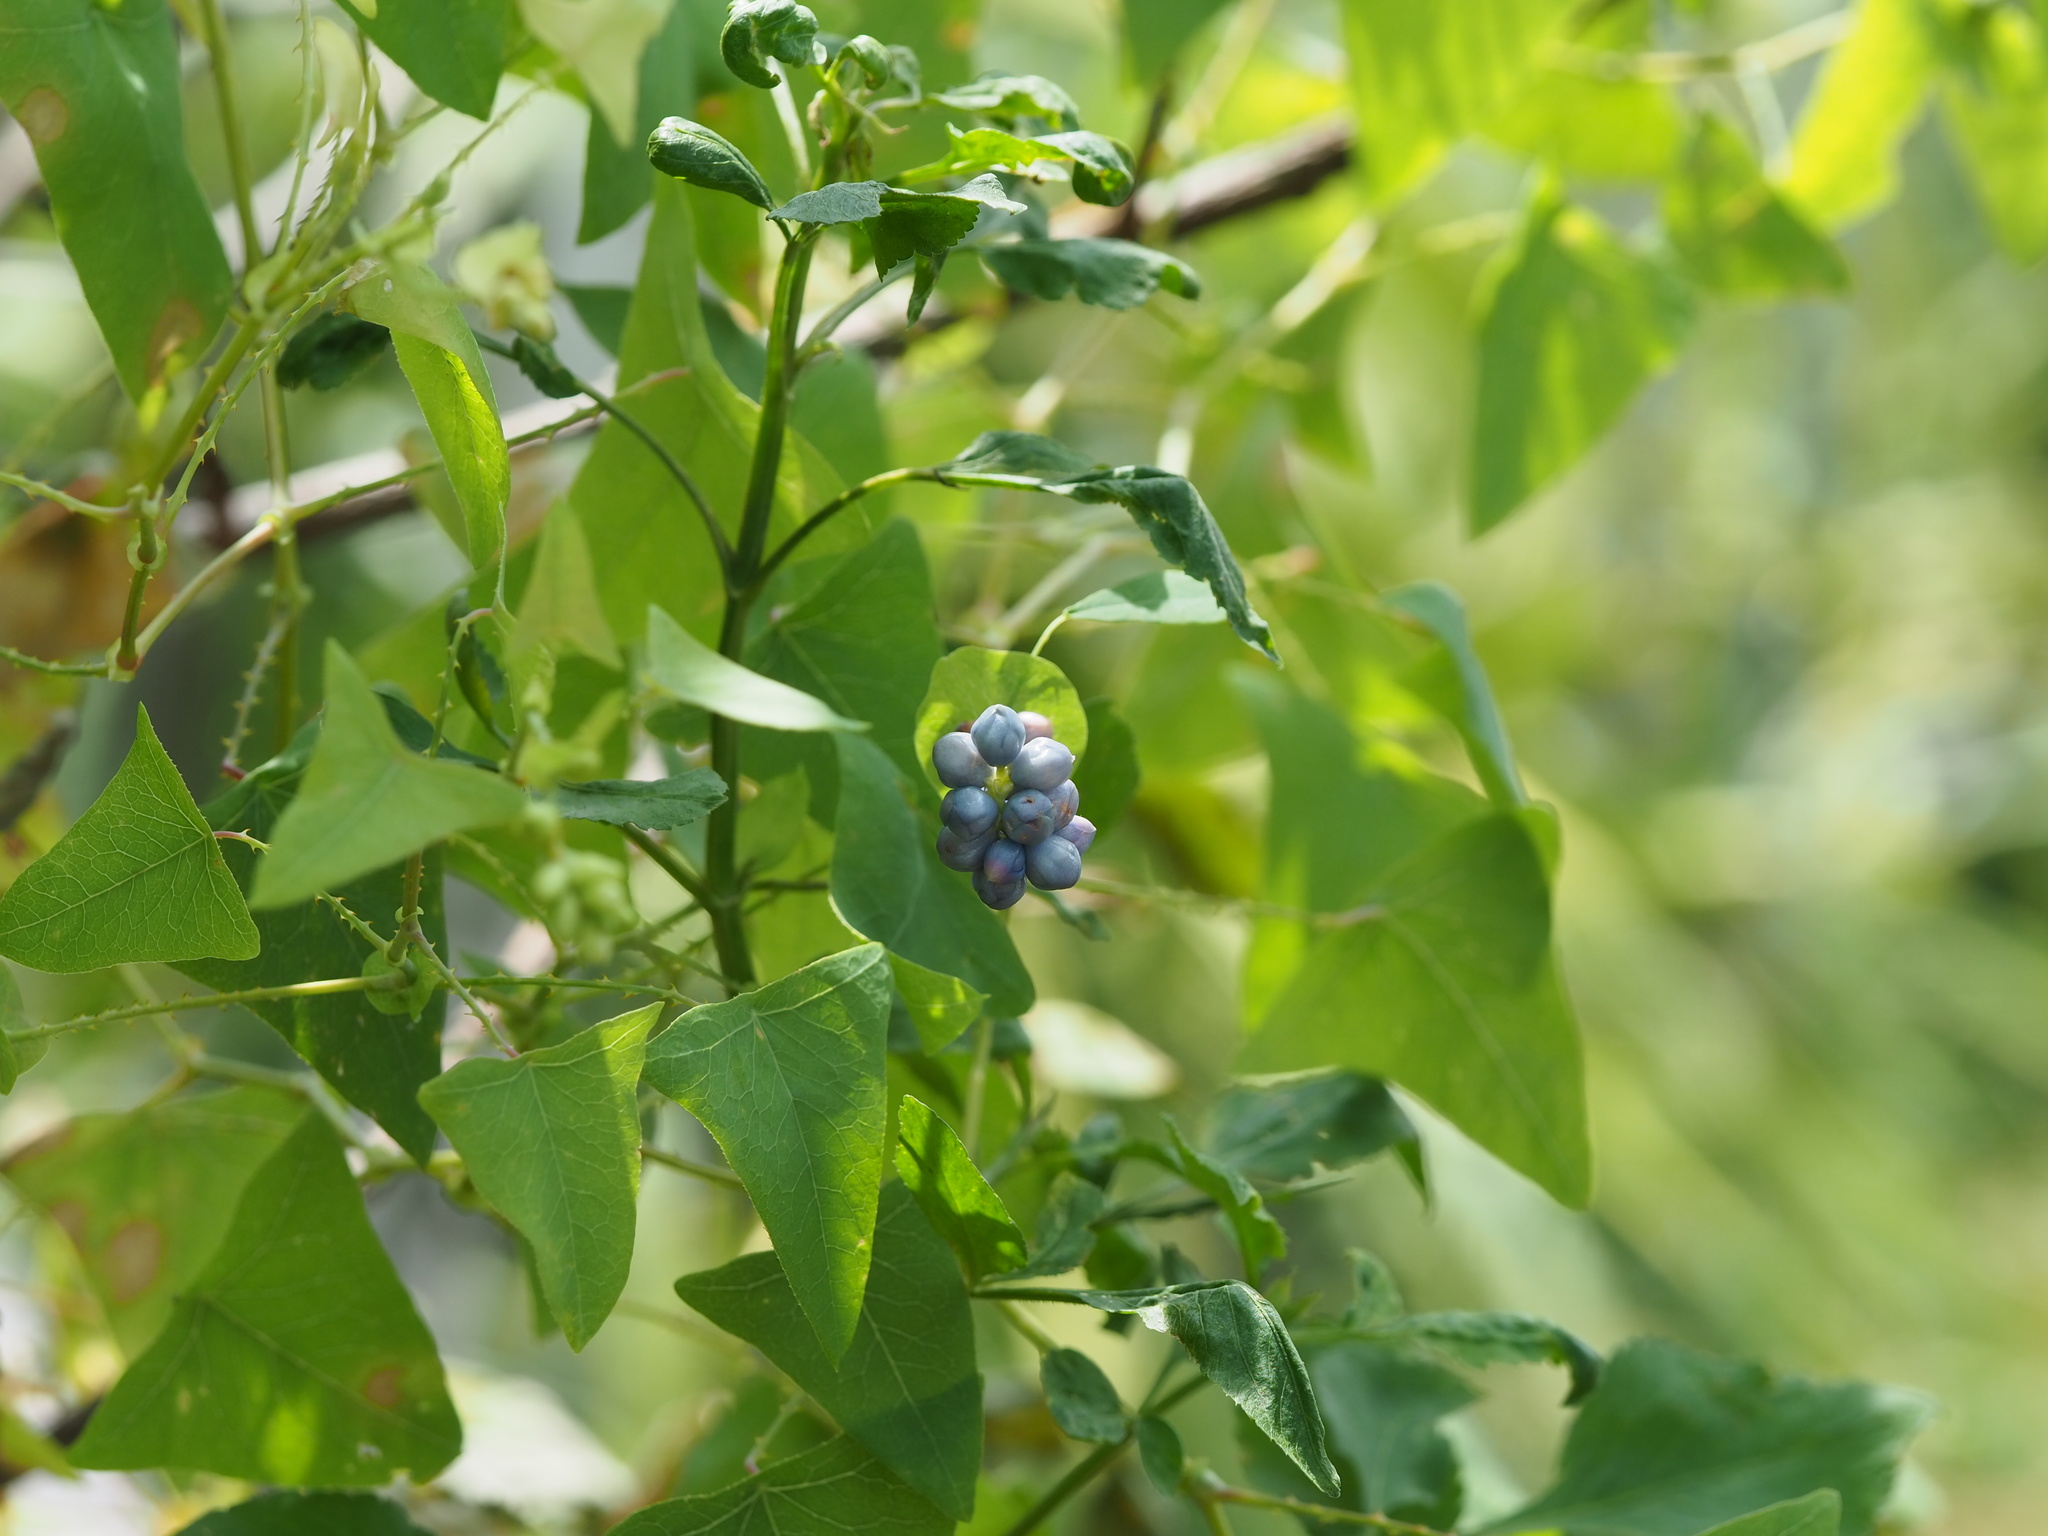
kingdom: Plantae
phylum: Tracheophyta
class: Magnoliopsida
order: Caryophyllales
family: Polygonaceae
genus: Persicaria
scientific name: Persicaria perfoliata
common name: Asiatic tearthumb
